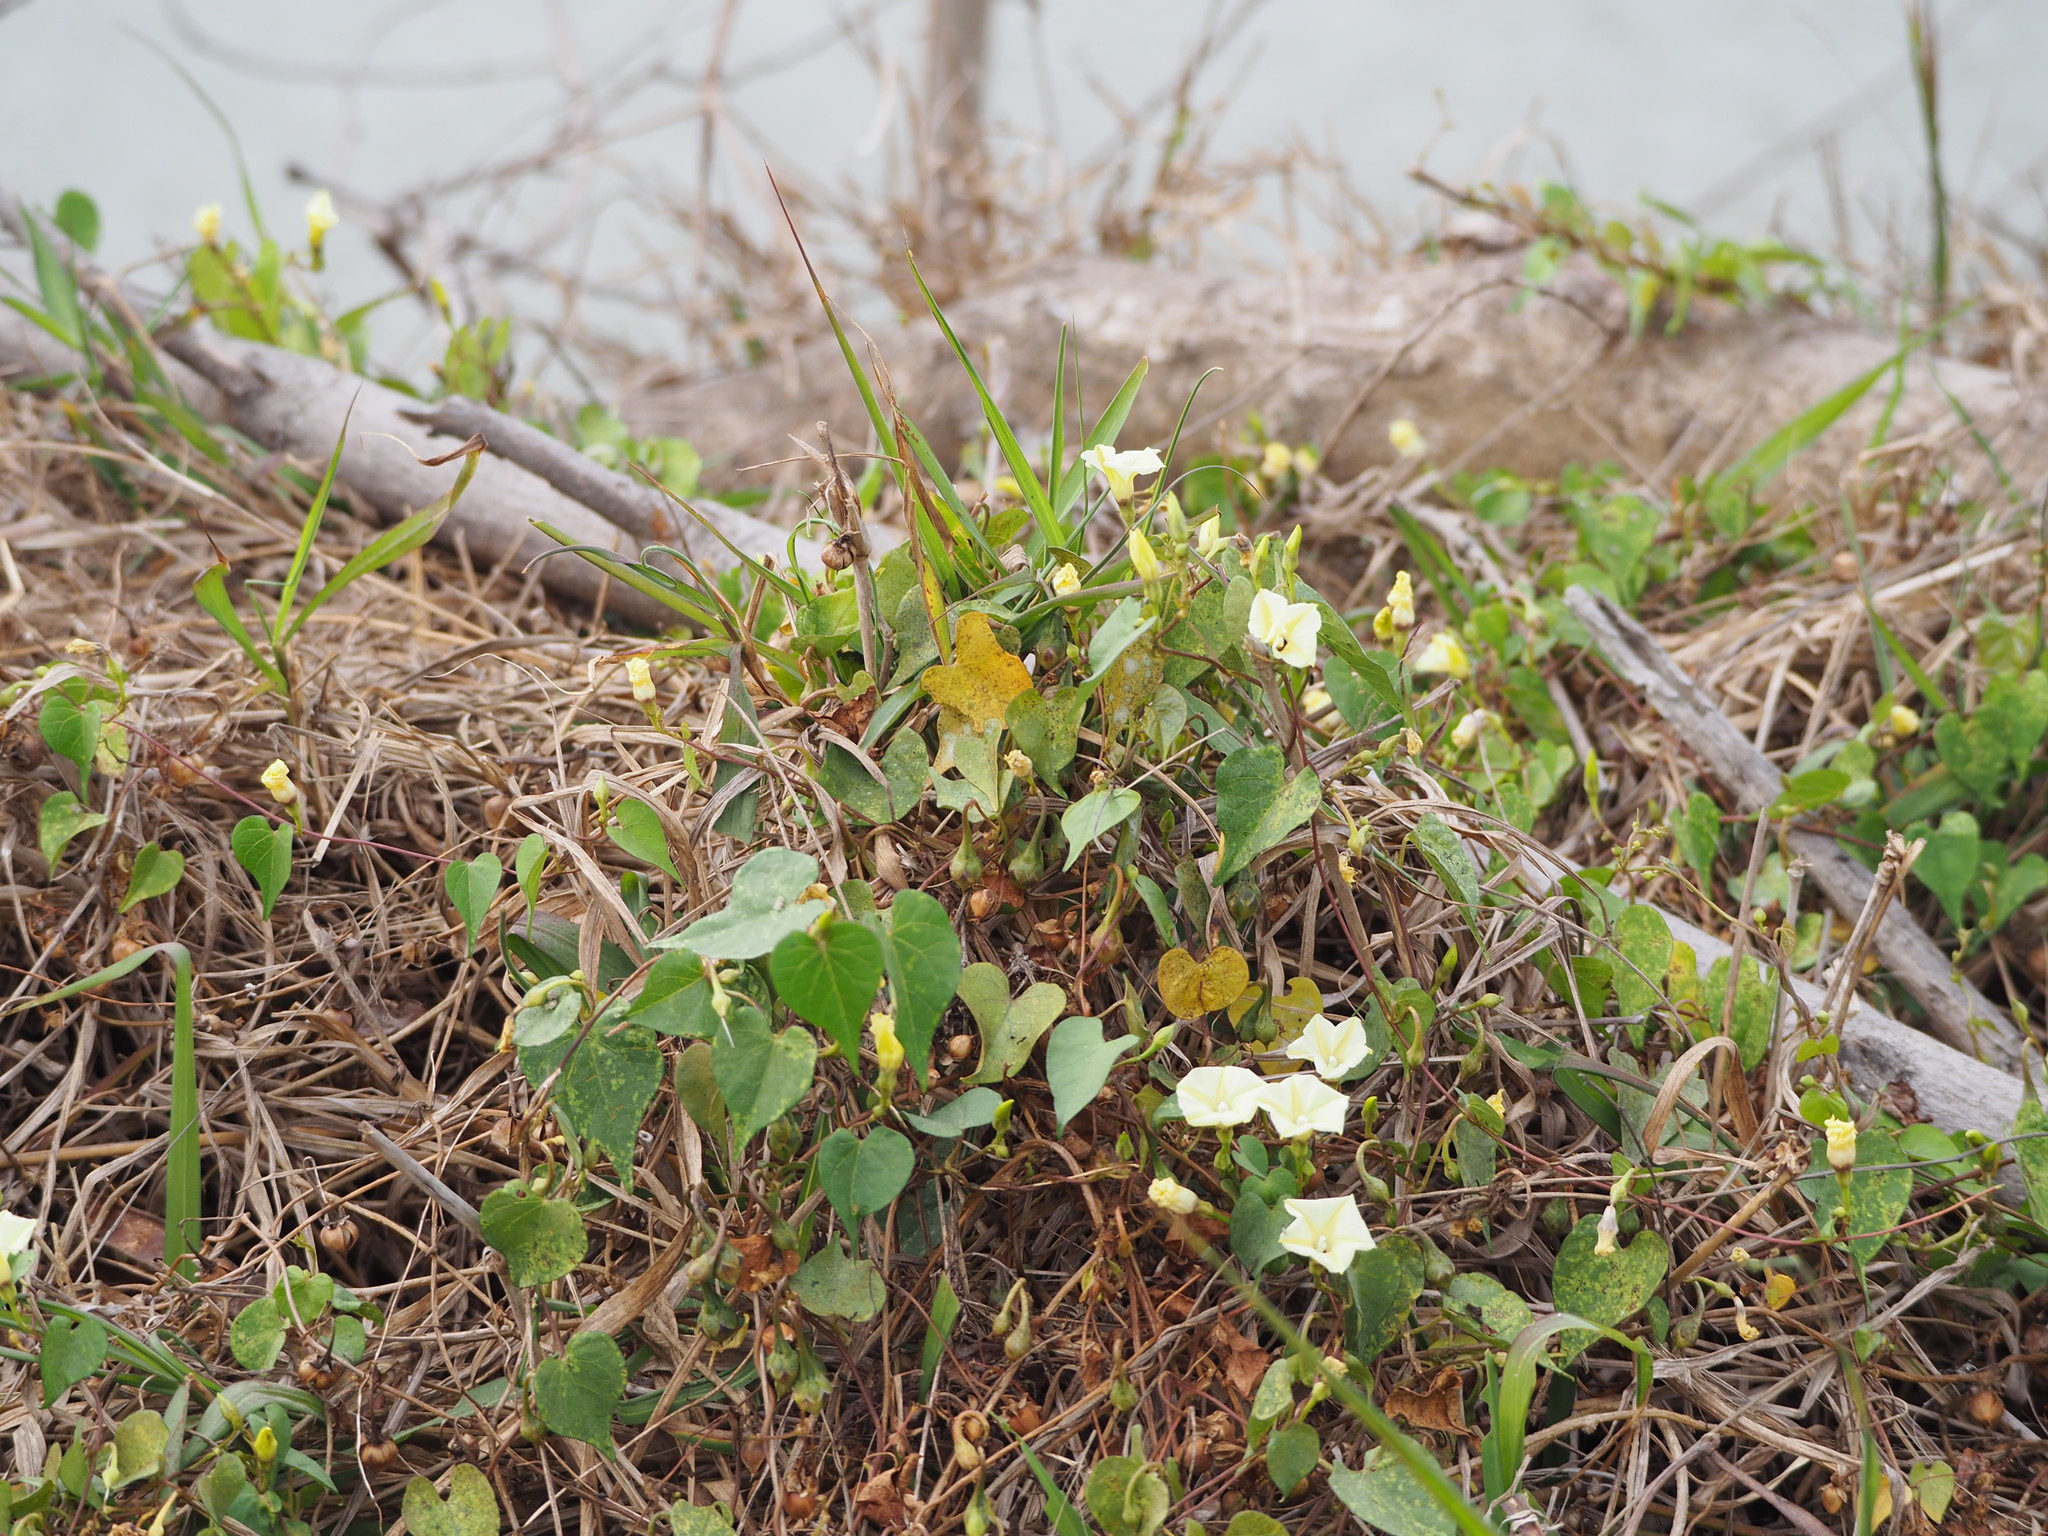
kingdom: Plantae
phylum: Tracheophyta
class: Magnoliopsida
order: Solanales
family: Convolvulaceae
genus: Ipomoea
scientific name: Ipomoea obscura
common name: Obscure morning-glory
